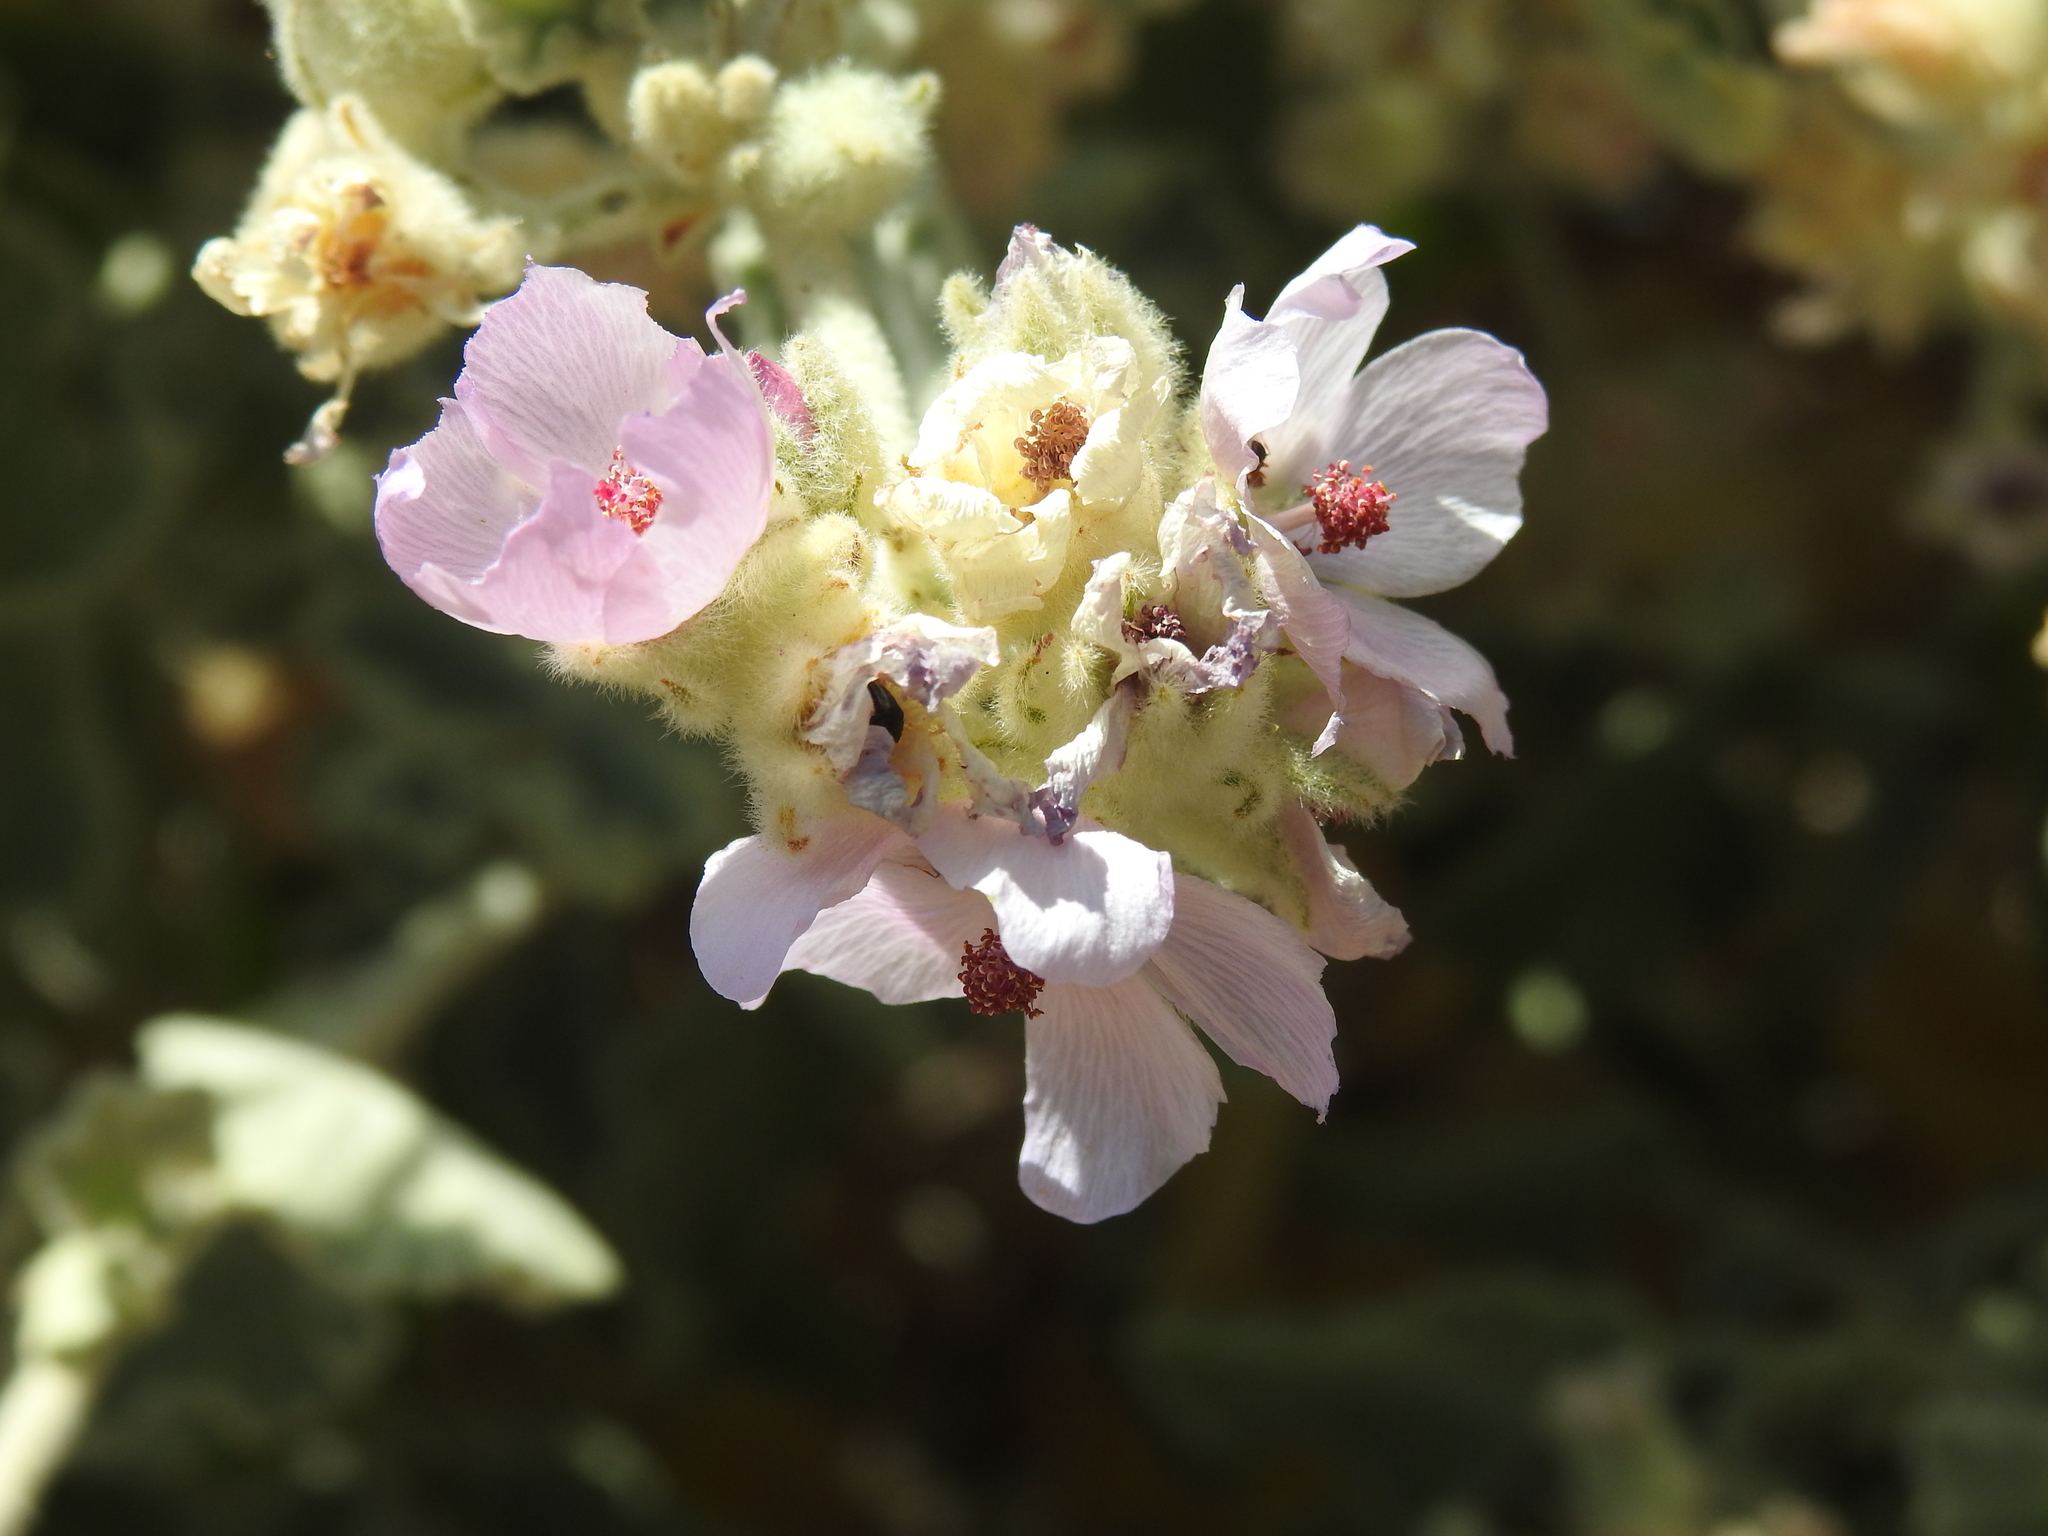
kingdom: Plantae
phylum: Tracheophyta
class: Magnoliopsida
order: Malvales
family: Malvaceae
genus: Malacothamnus
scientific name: Malacothamnus fremontii
